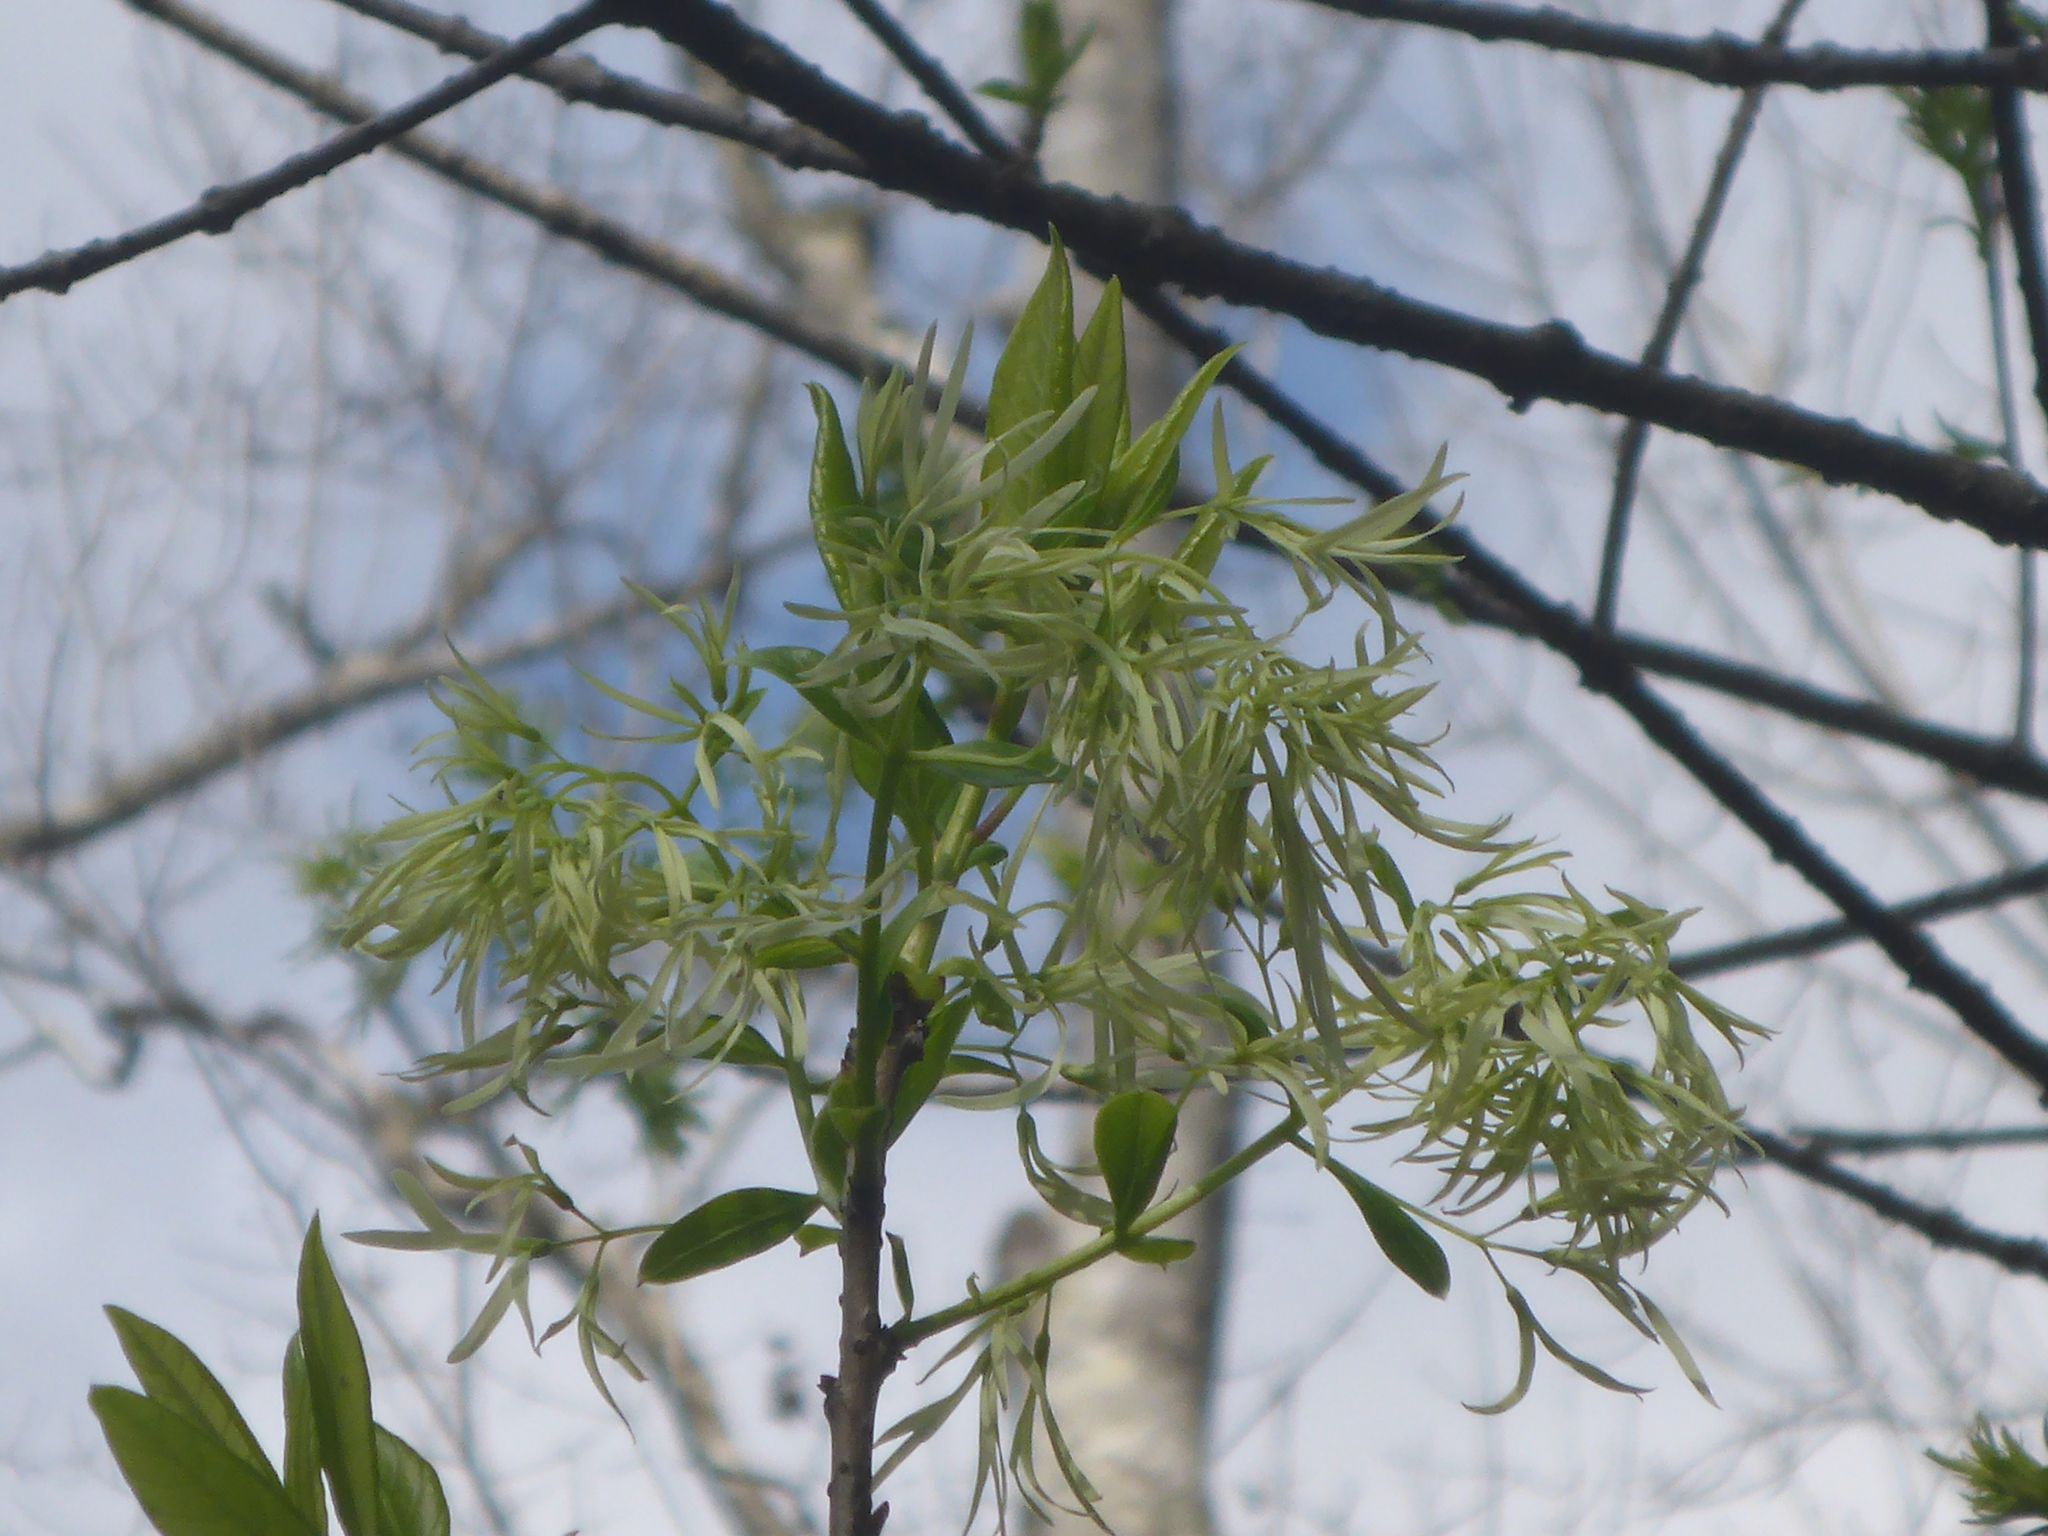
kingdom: Plantae
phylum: Tracheophyta
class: Magnoliopsida
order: Lamiales
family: Oleaceae
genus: Chionanthus
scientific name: Chionanthus virginicus
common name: American fringetree
